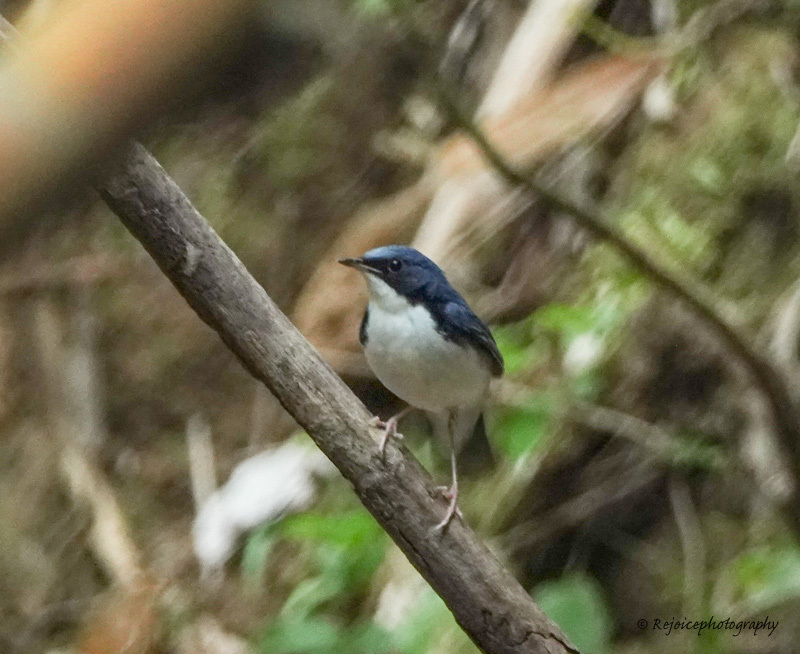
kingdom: Animalia
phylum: Chordata
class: Aves
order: Passeriformes
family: Muscicapidae
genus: Luscinia
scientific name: Luscinia cyane
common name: Siberian blue robin
